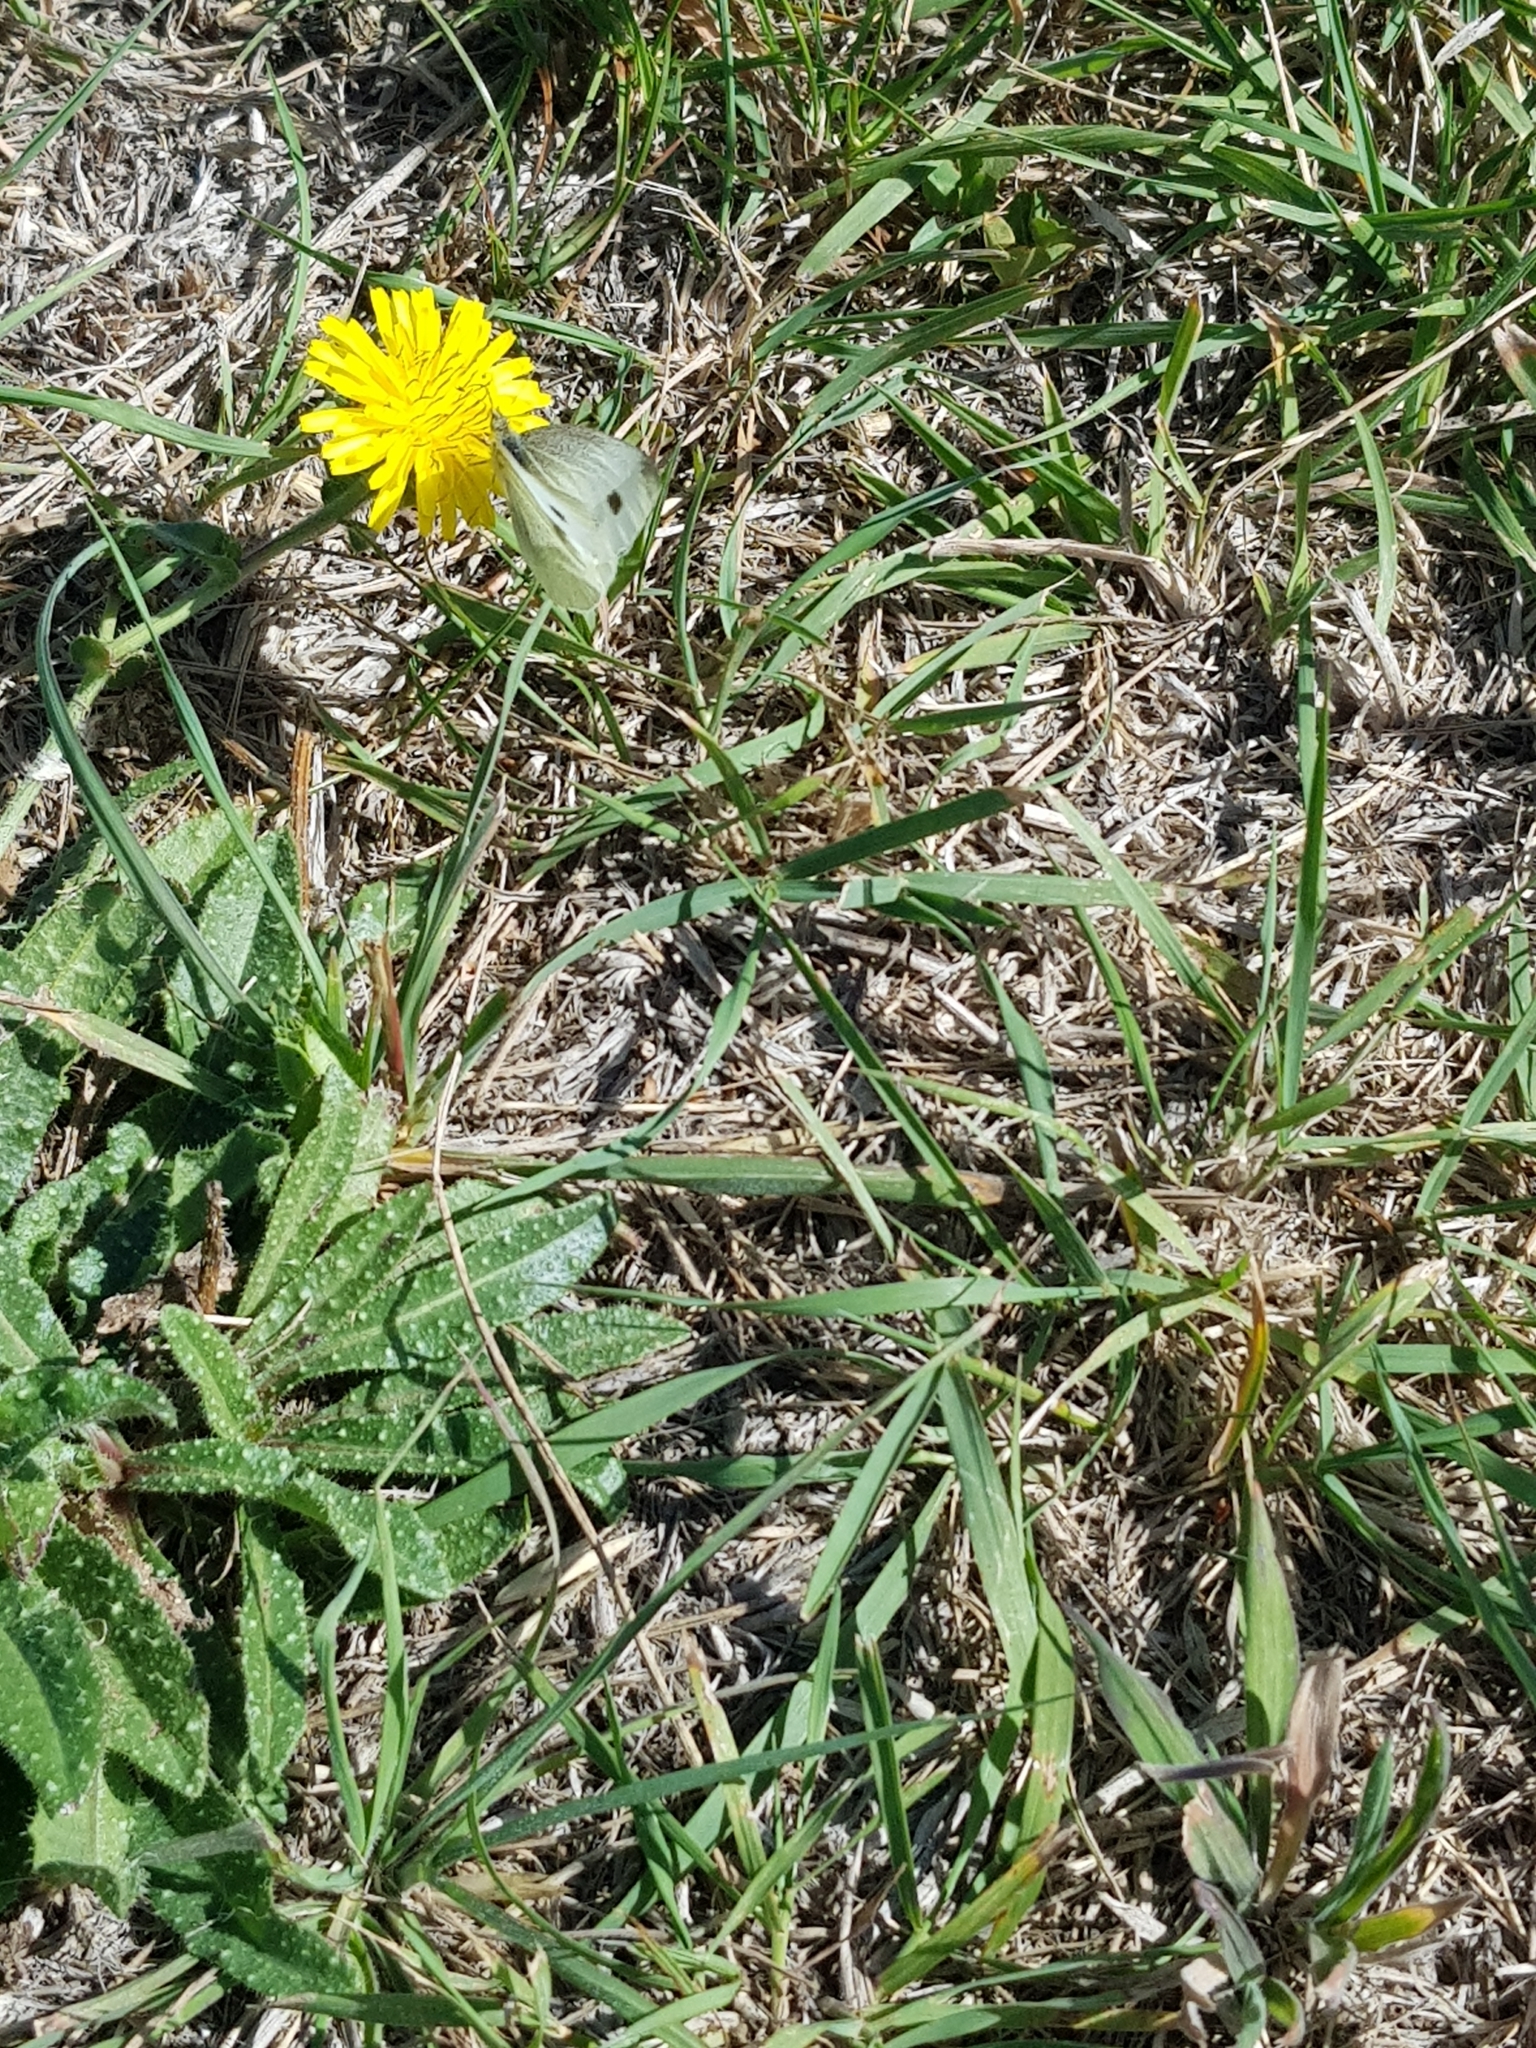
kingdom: Animalia
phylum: Arthropoda
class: Insecta
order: Lepidoptera
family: Pieridae
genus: Pieris
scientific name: Pieris rapae
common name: Small white
